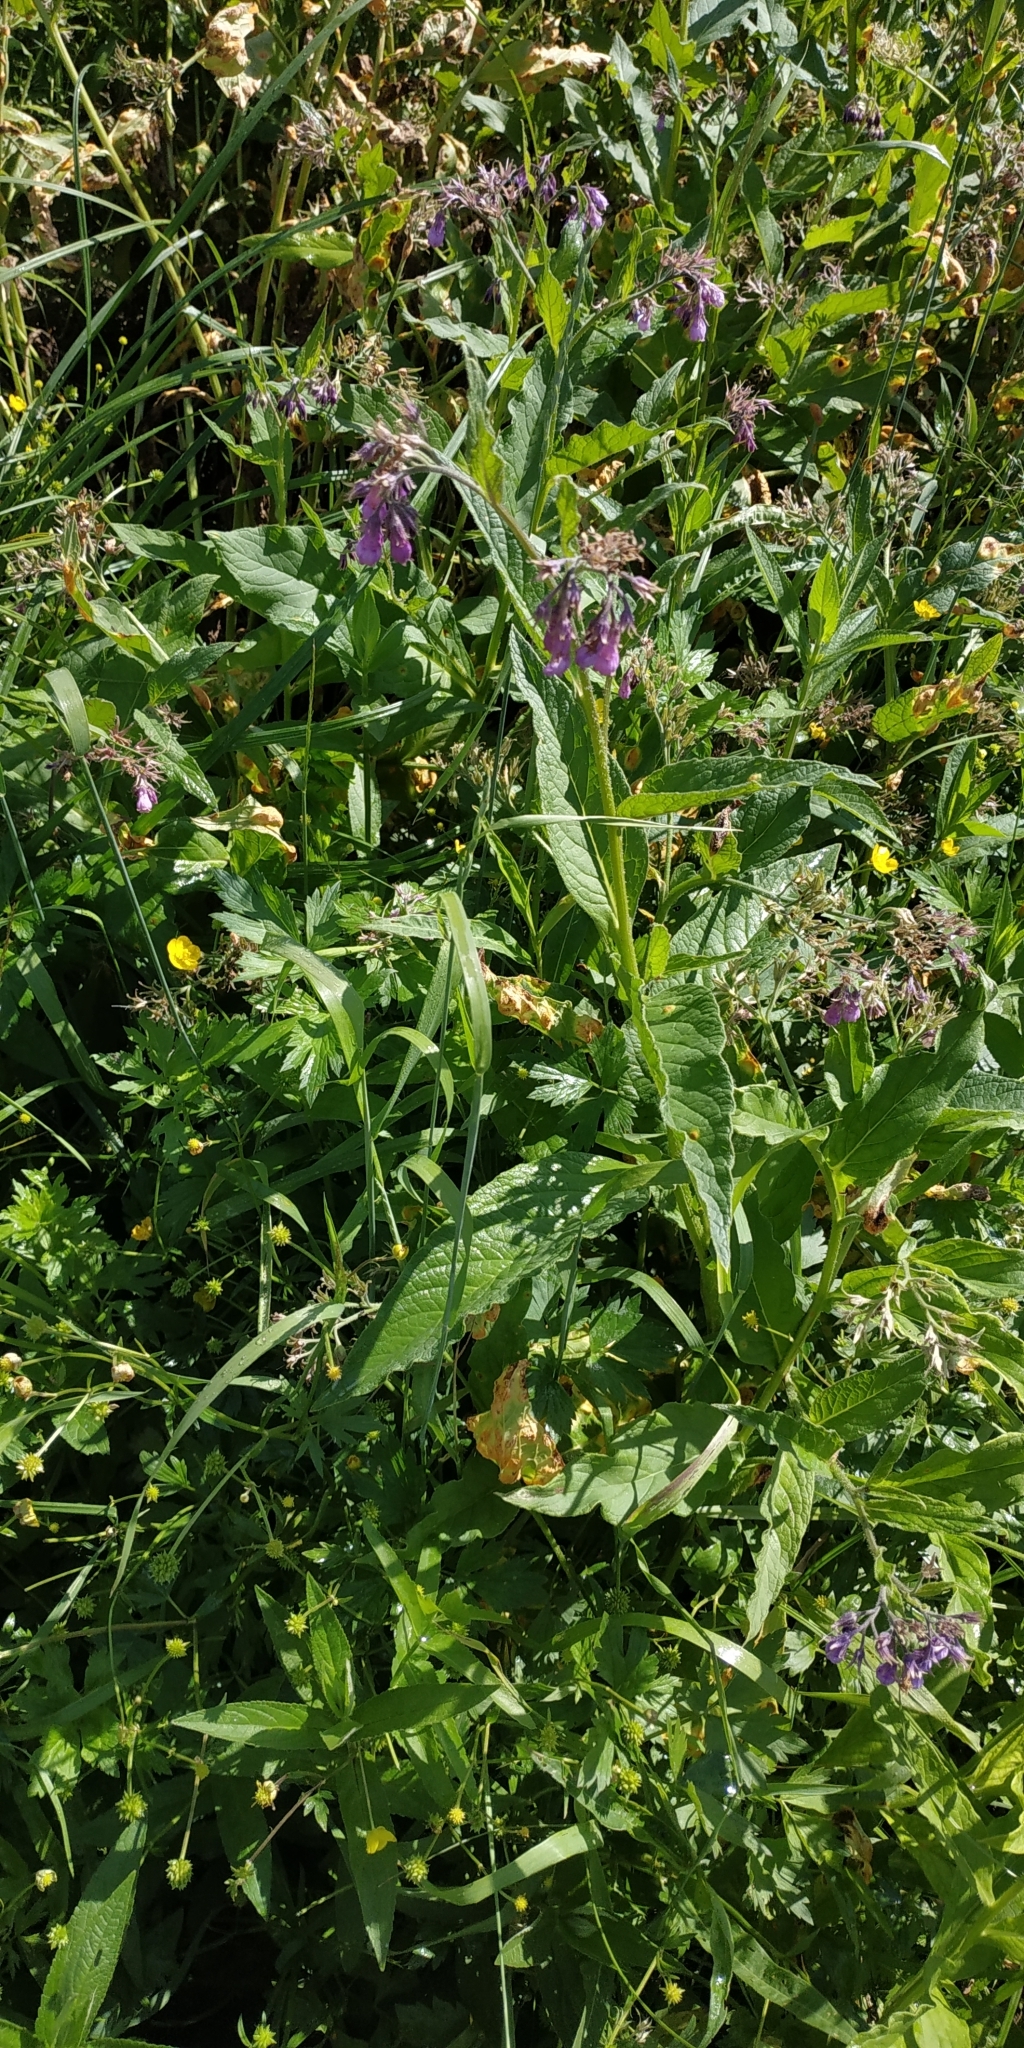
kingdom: Plantae
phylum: Tracheophyta
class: Magnoliopsida
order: Boraginales
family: Boraginaceae
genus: Symphytum
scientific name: Symphytum officinale
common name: Common comfrey
